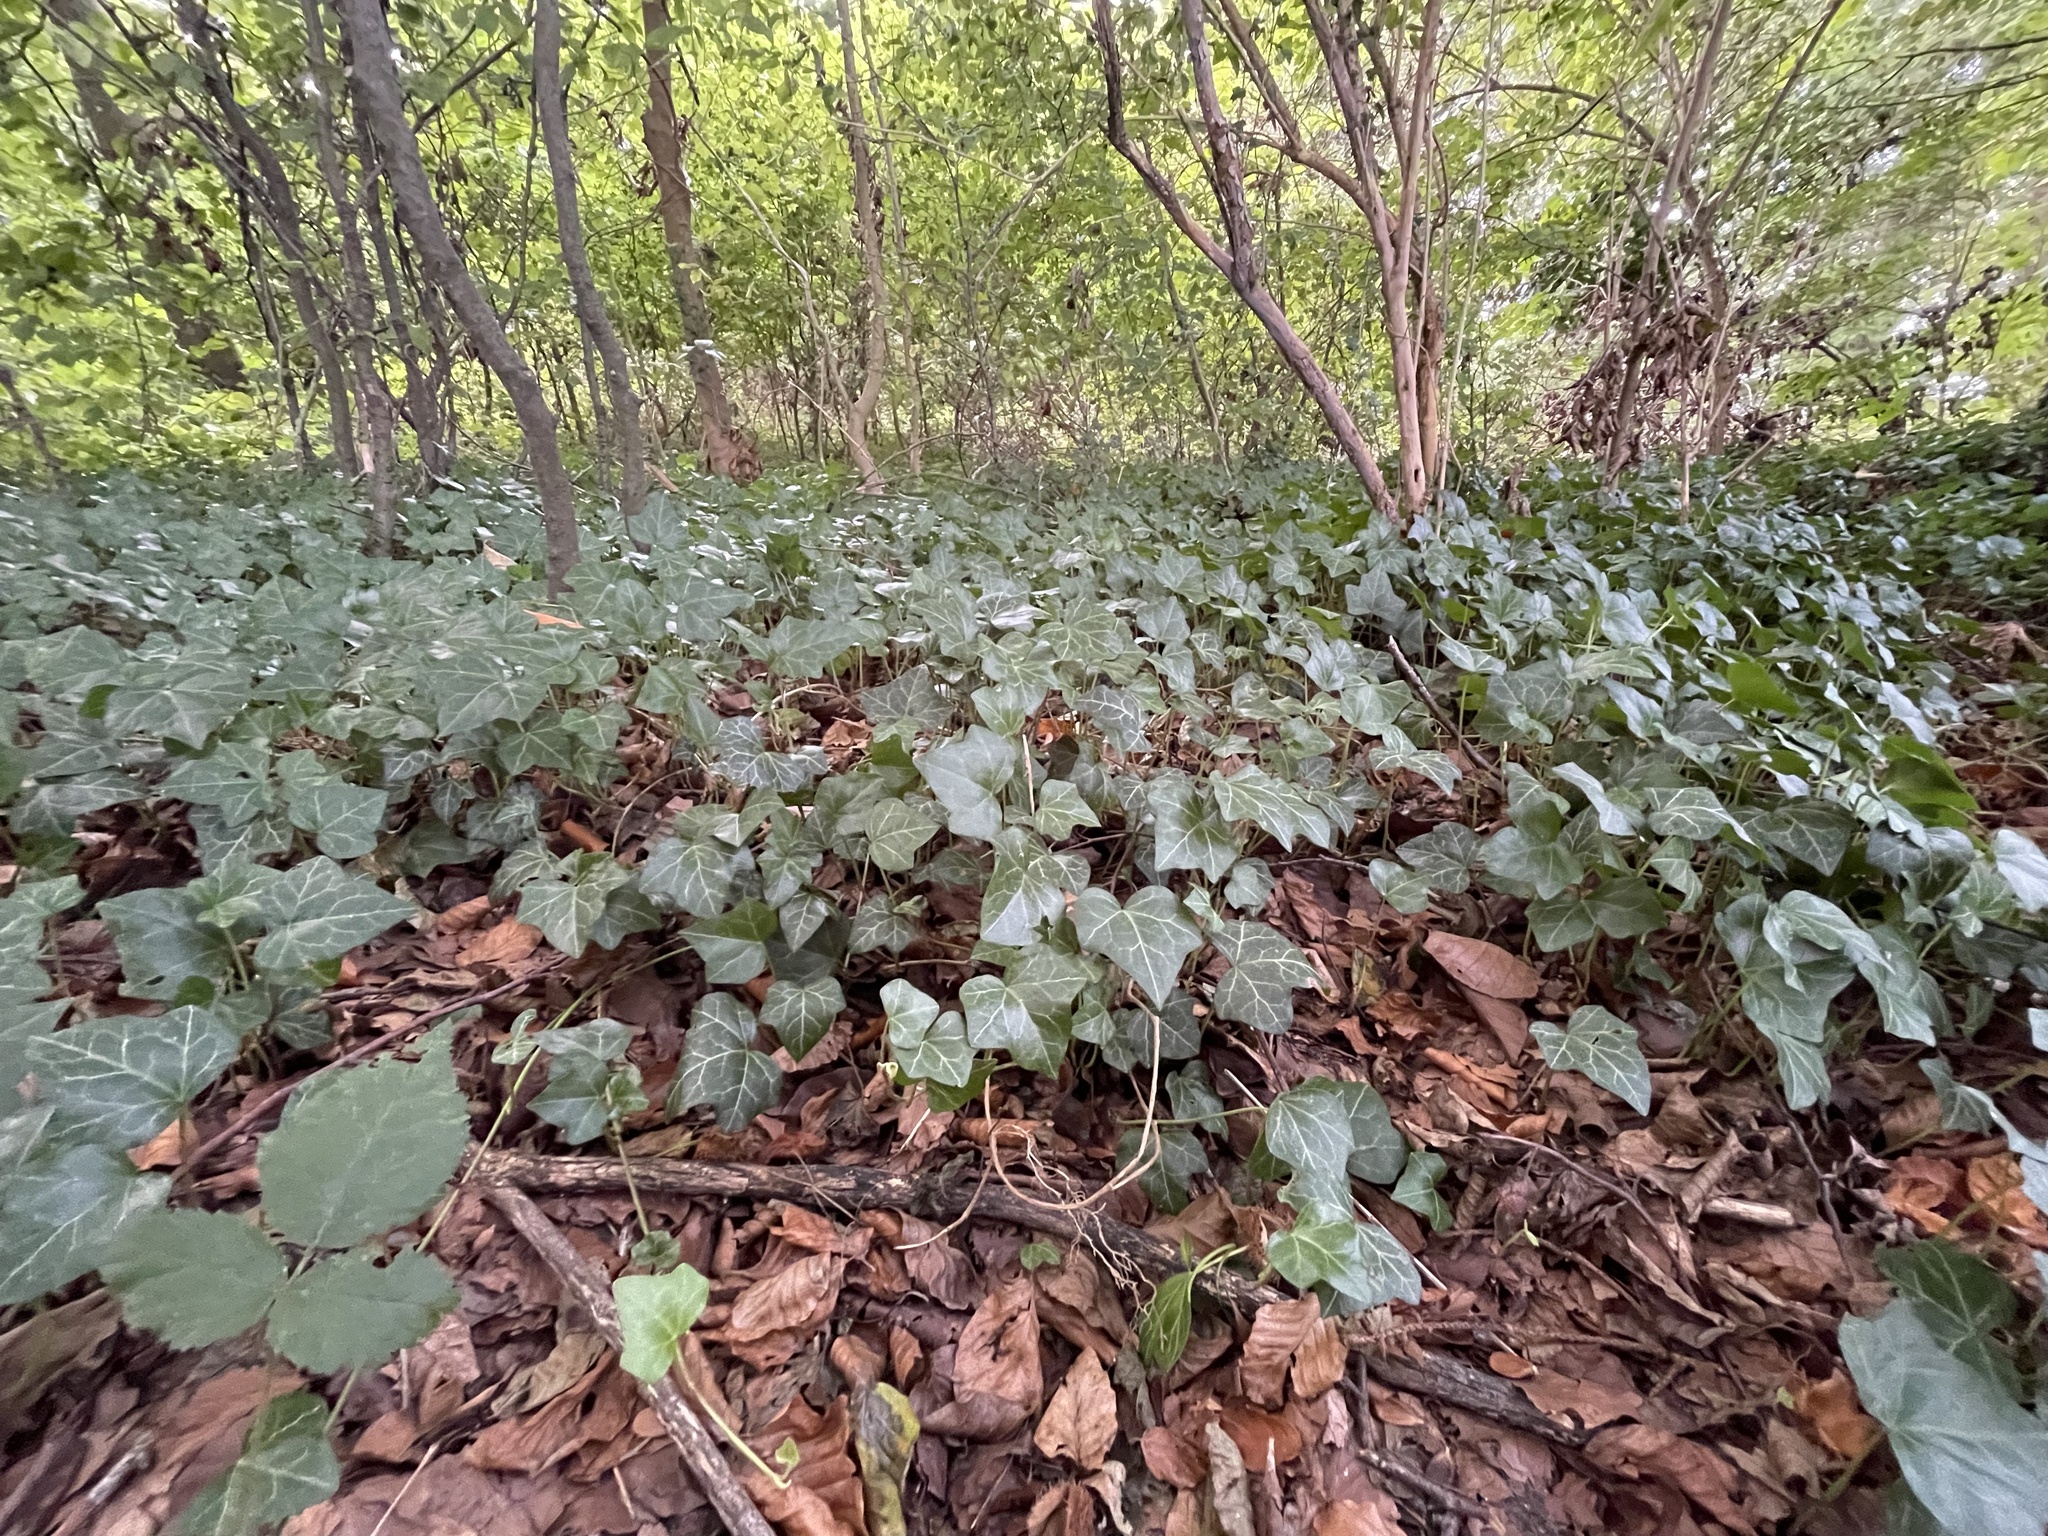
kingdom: Plantae
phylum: Tracheophyta
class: Magnoliopsida
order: Apiales
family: Araliaceae
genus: Hedera
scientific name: Hedera helix
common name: Ivy
